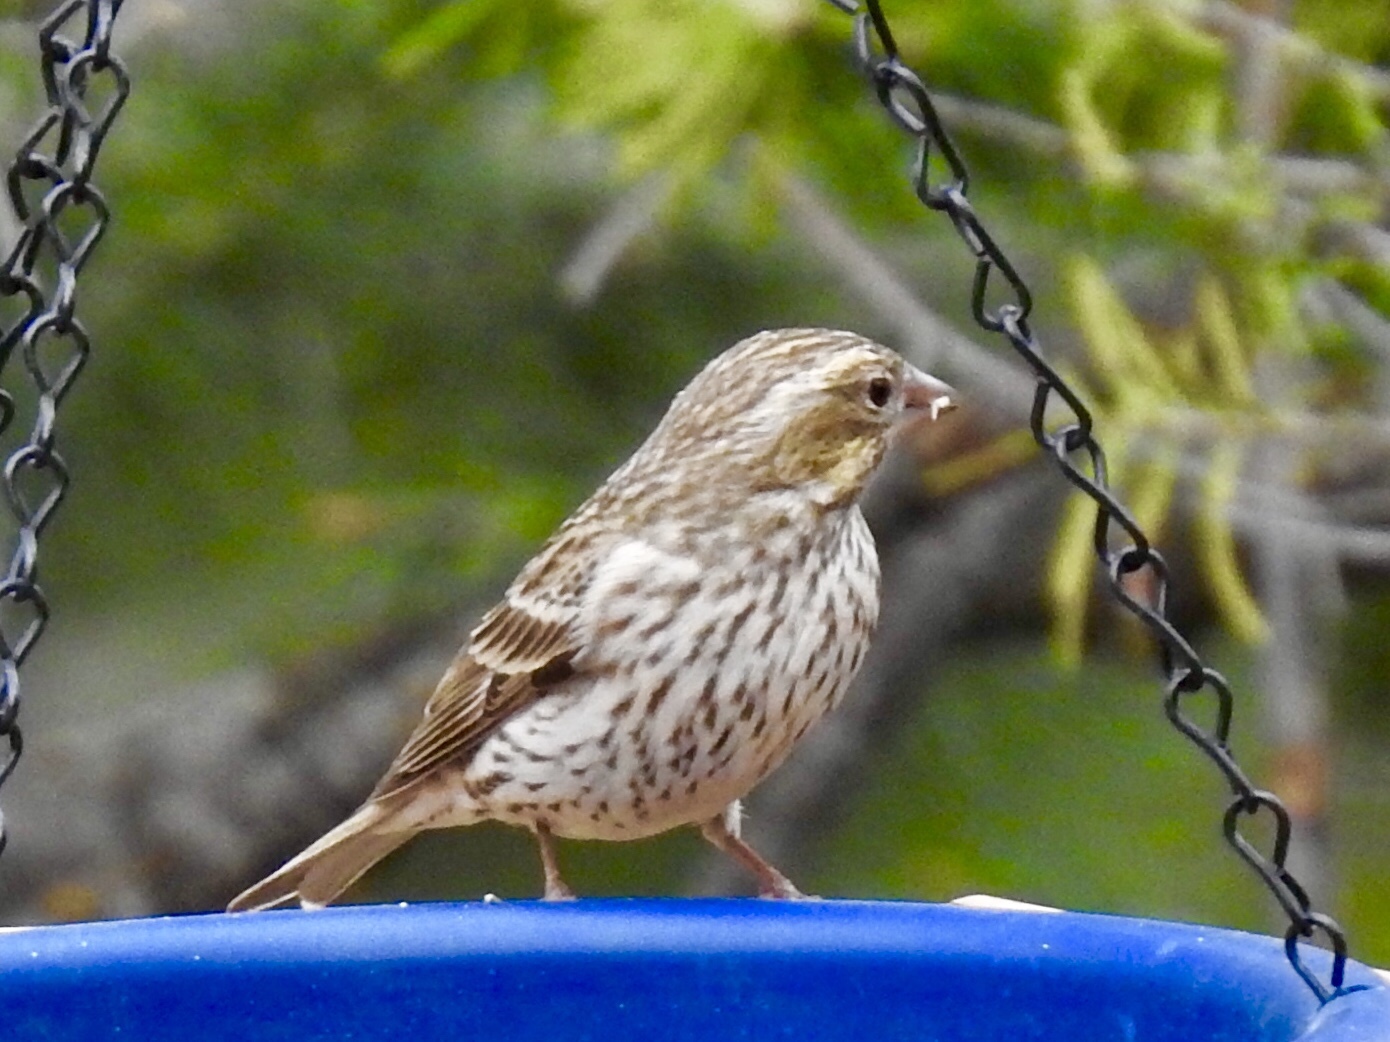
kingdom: Animalia
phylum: Chordata
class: Aves
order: Passeriformes
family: Fringillidae
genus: Haemorhous
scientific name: Haemorhous cassinii
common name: Cassin's finch
